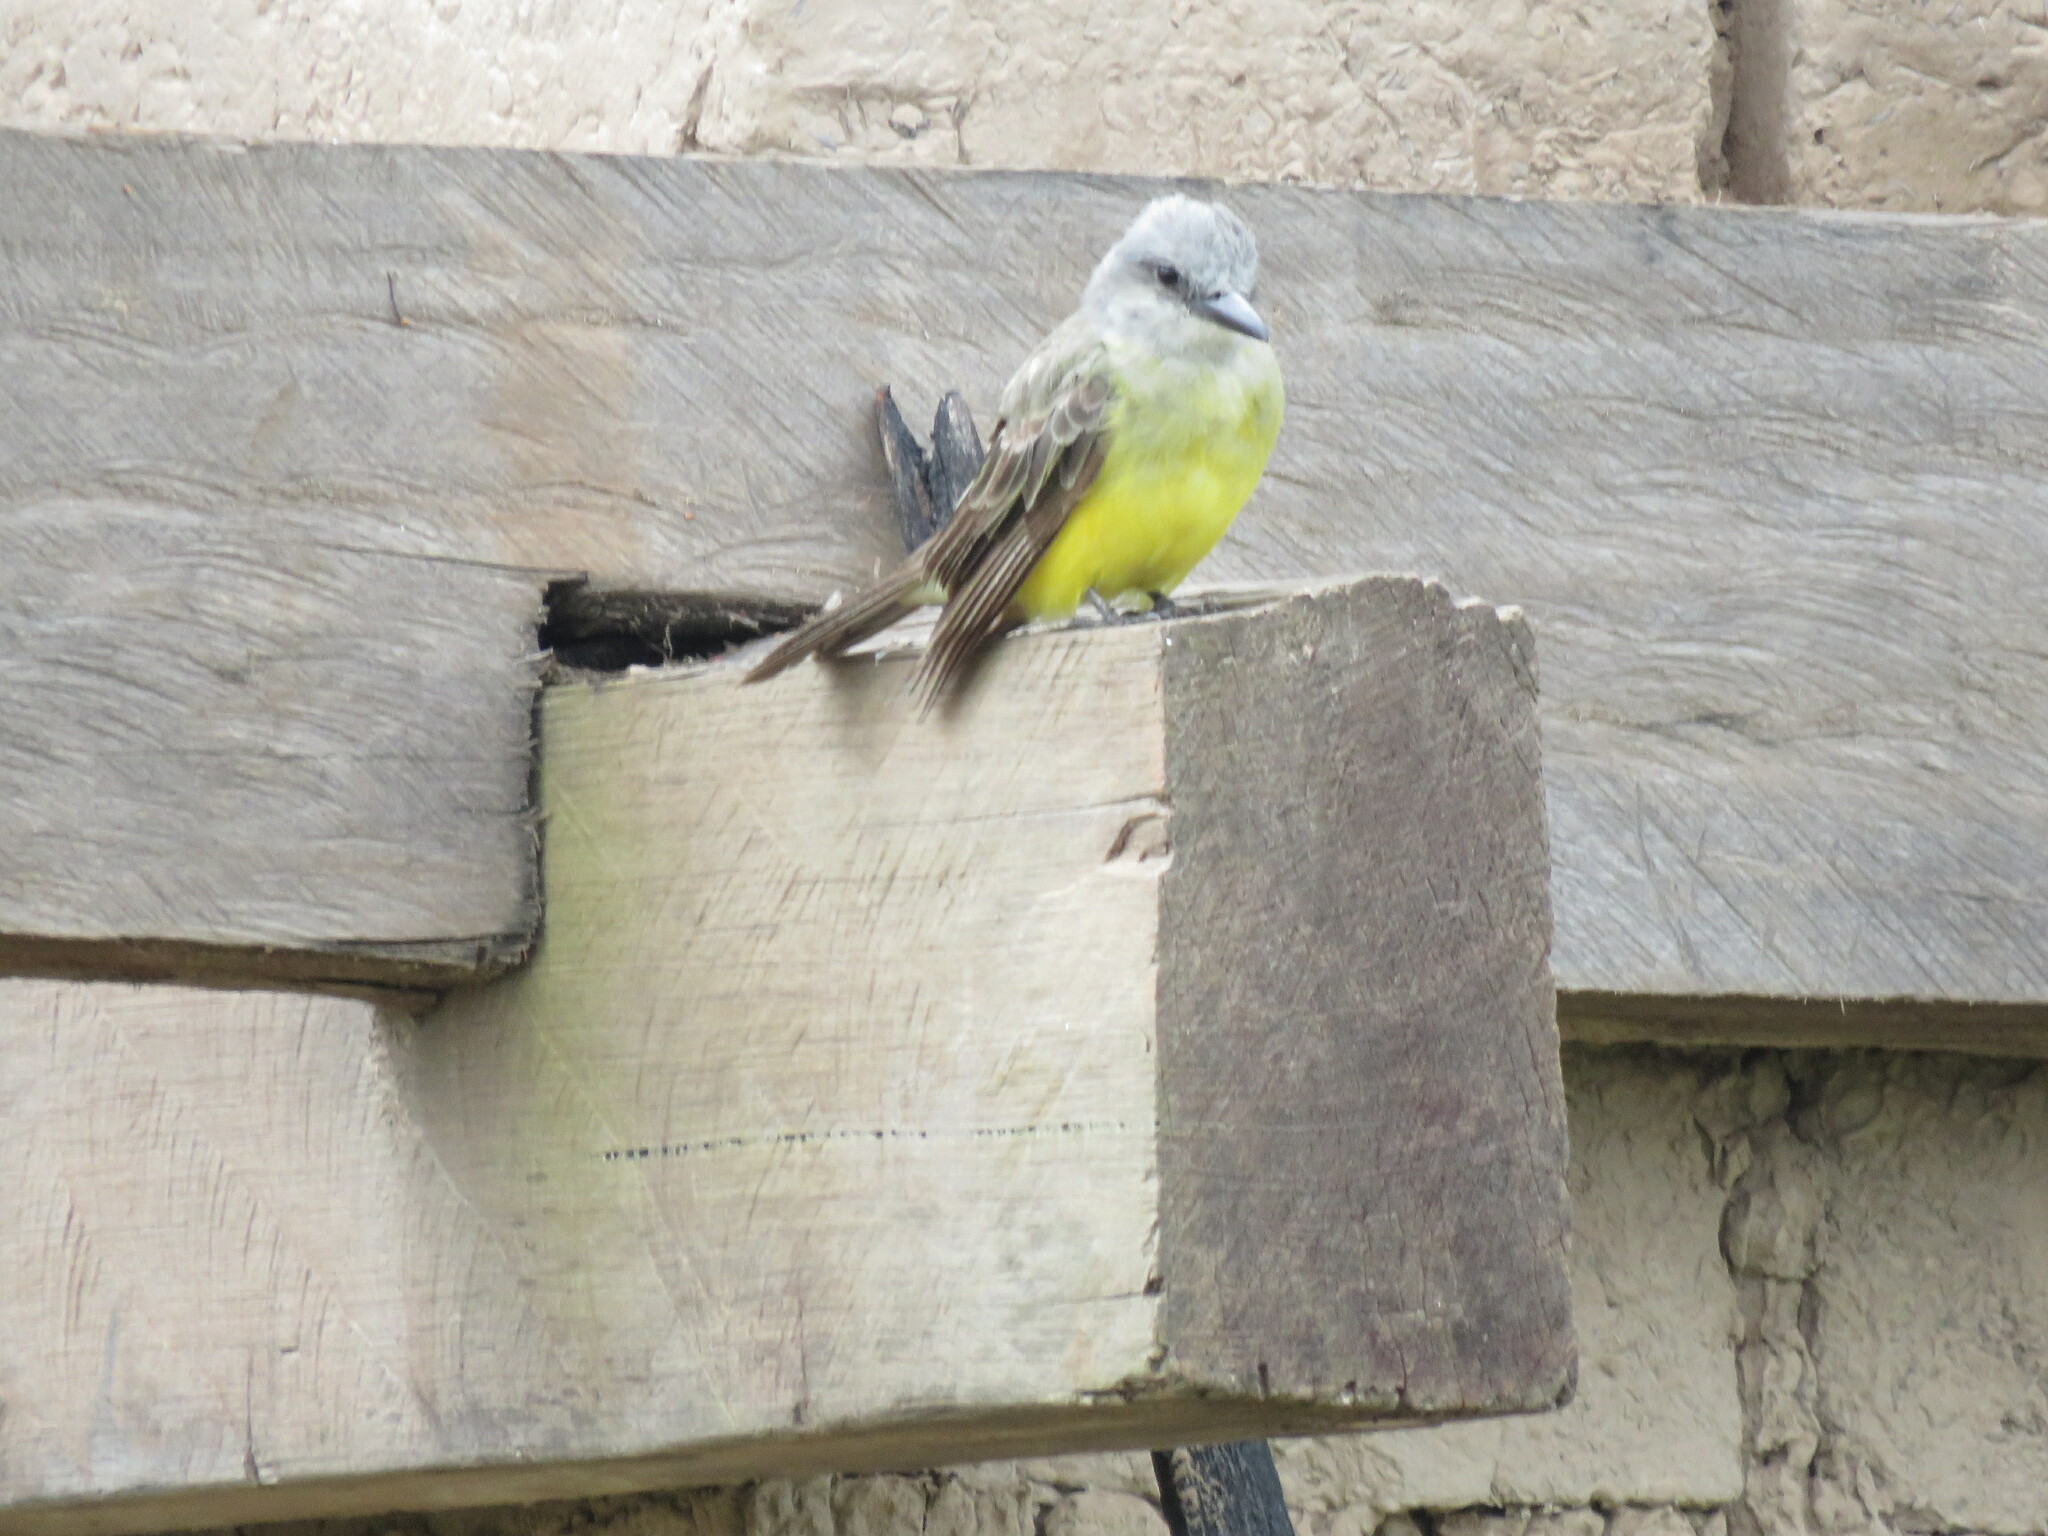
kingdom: Animalia
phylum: Chordata
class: Aves
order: Passeriformes
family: Tyrannidae
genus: Tyrannus
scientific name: Tyrannus melancholicus
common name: Tropical kingbird
